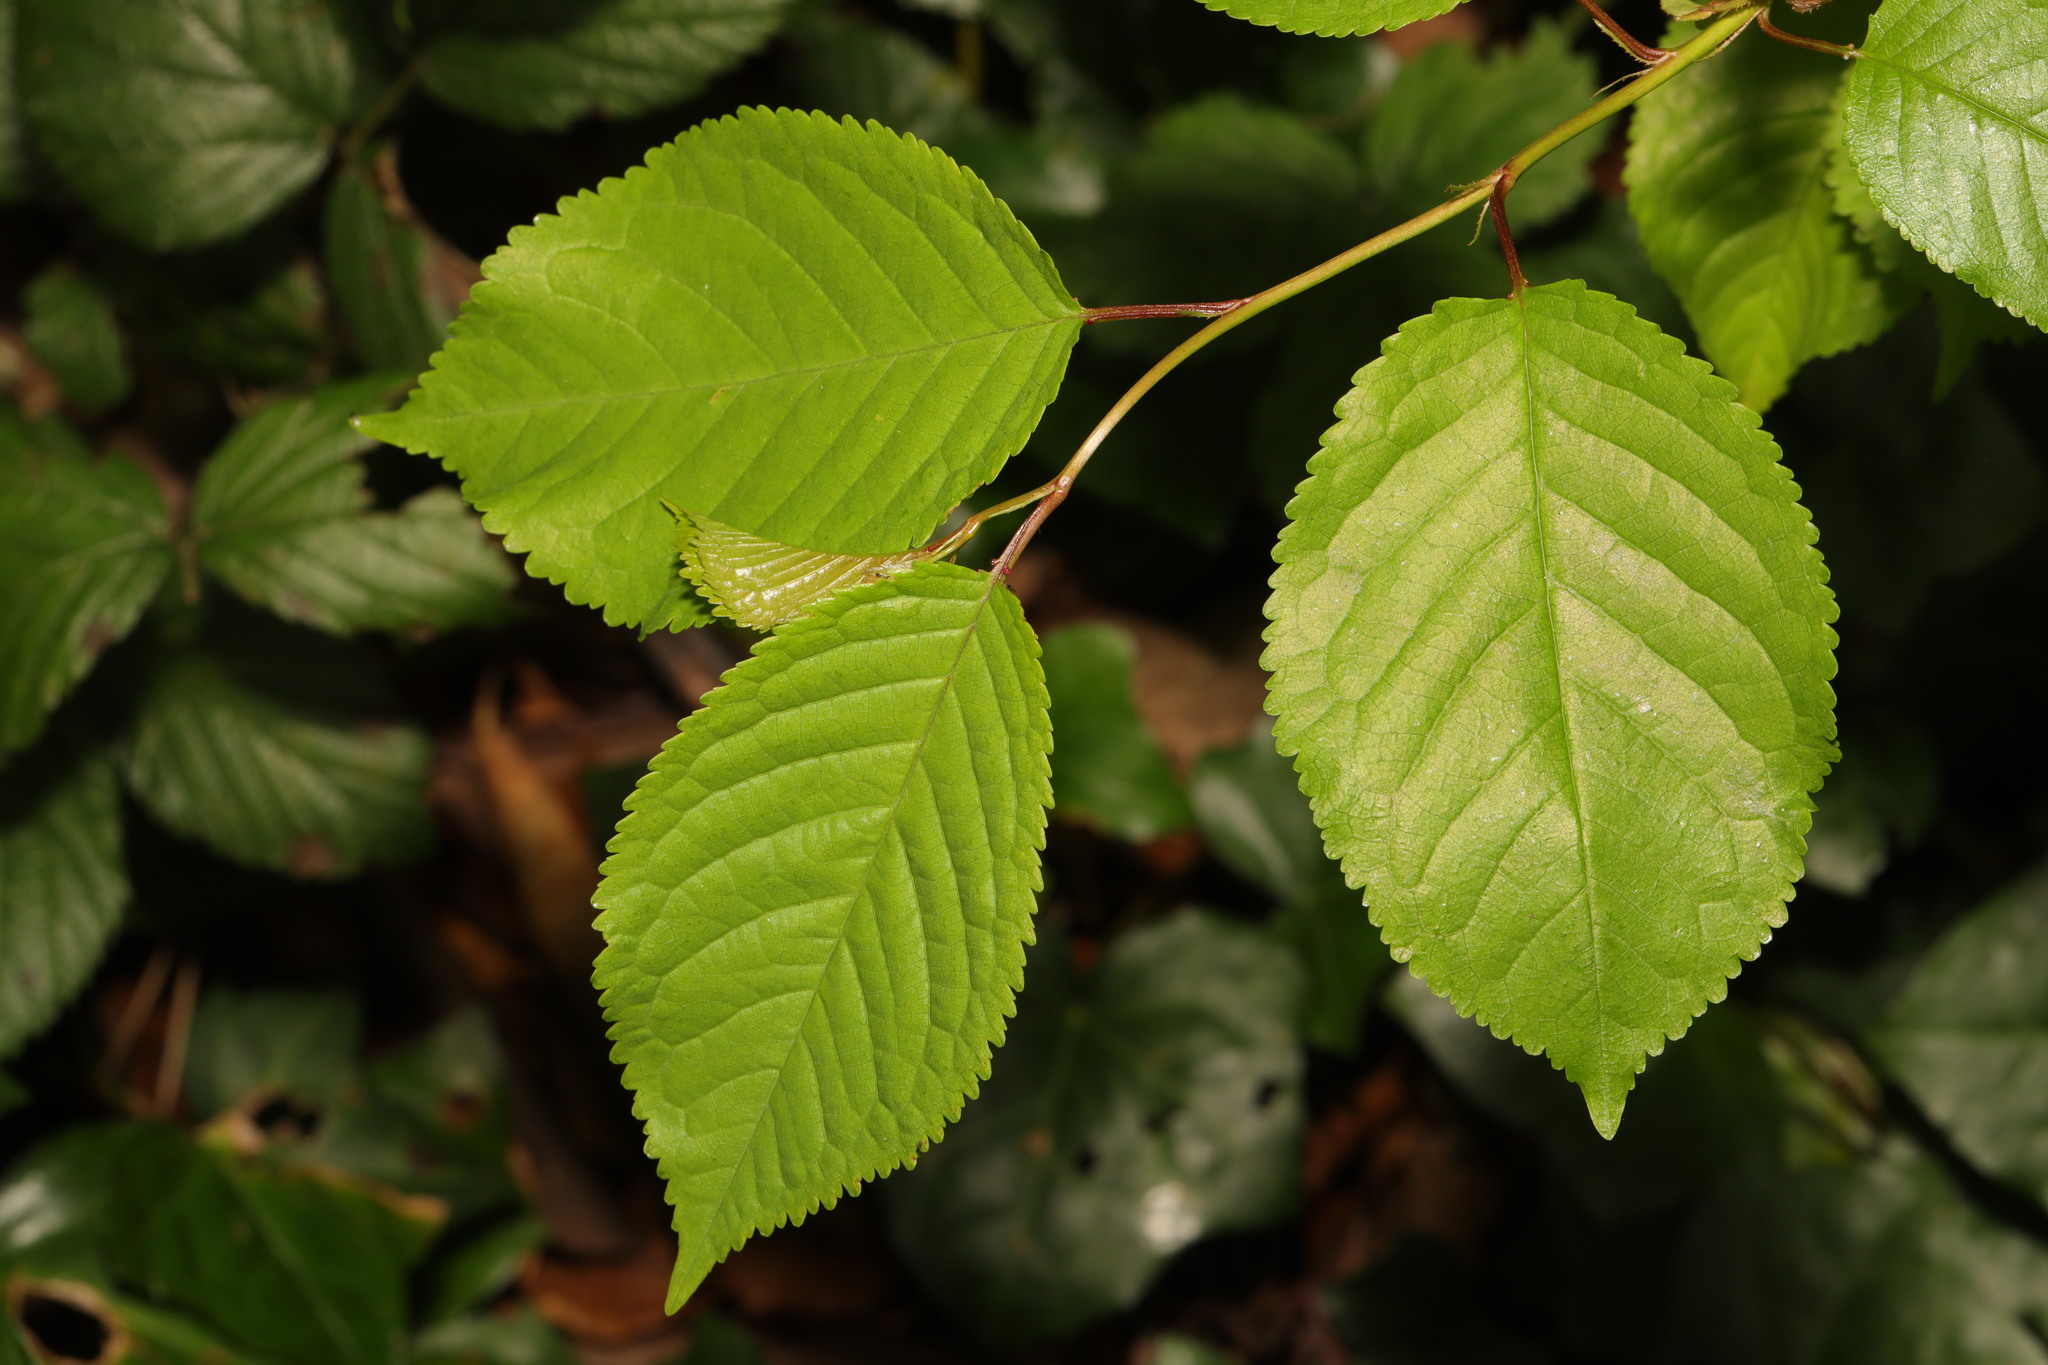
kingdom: Plantae
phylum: Tracheophyta
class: Magnoliopsida
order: Rosales
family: Rosaceae
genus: Prunus
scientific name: Prunus avium
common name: Sweet cherry
